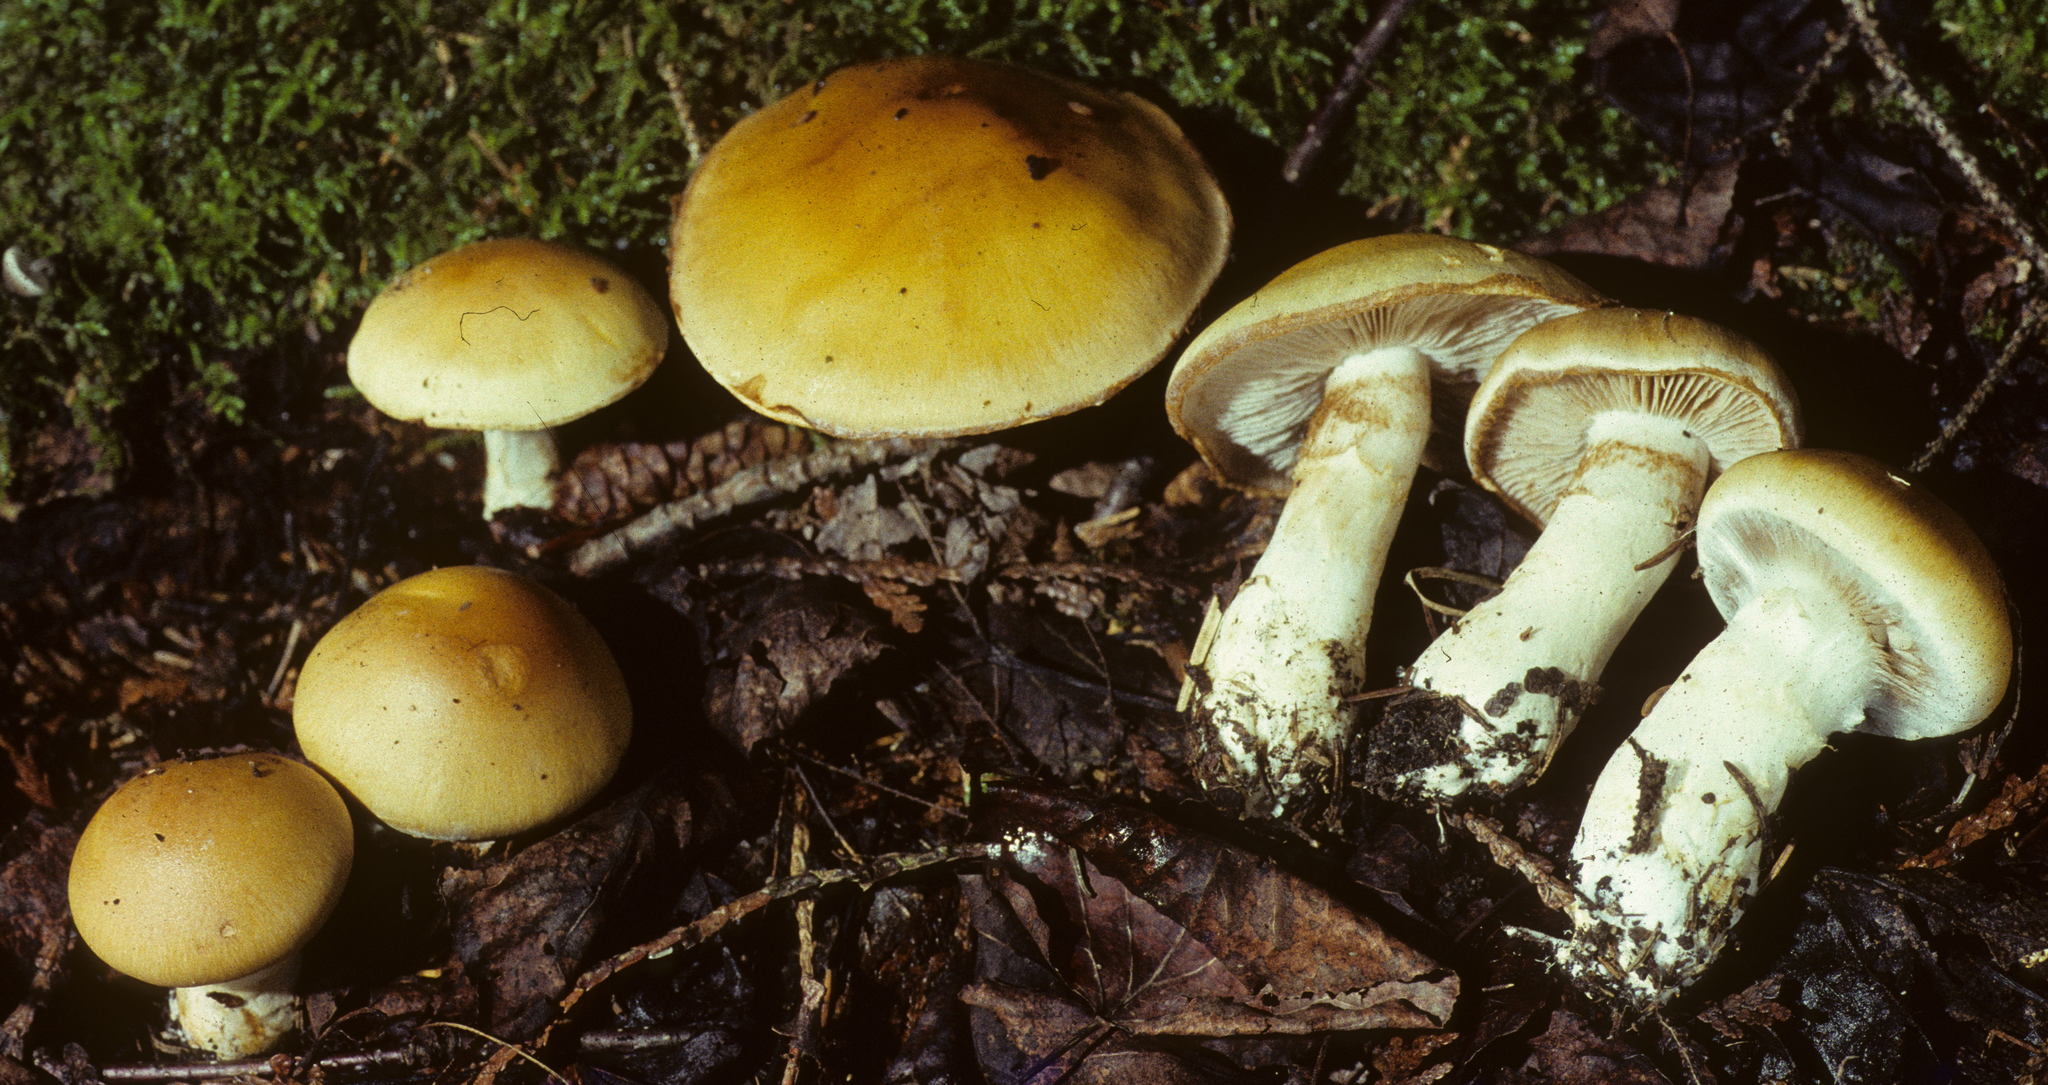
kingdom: Fungi
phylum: Basidiomycota
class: Agaricomycetes
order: Agaricales
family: Cortinariaceae
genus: Cortinarius
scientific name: Cortinarius claricolor
